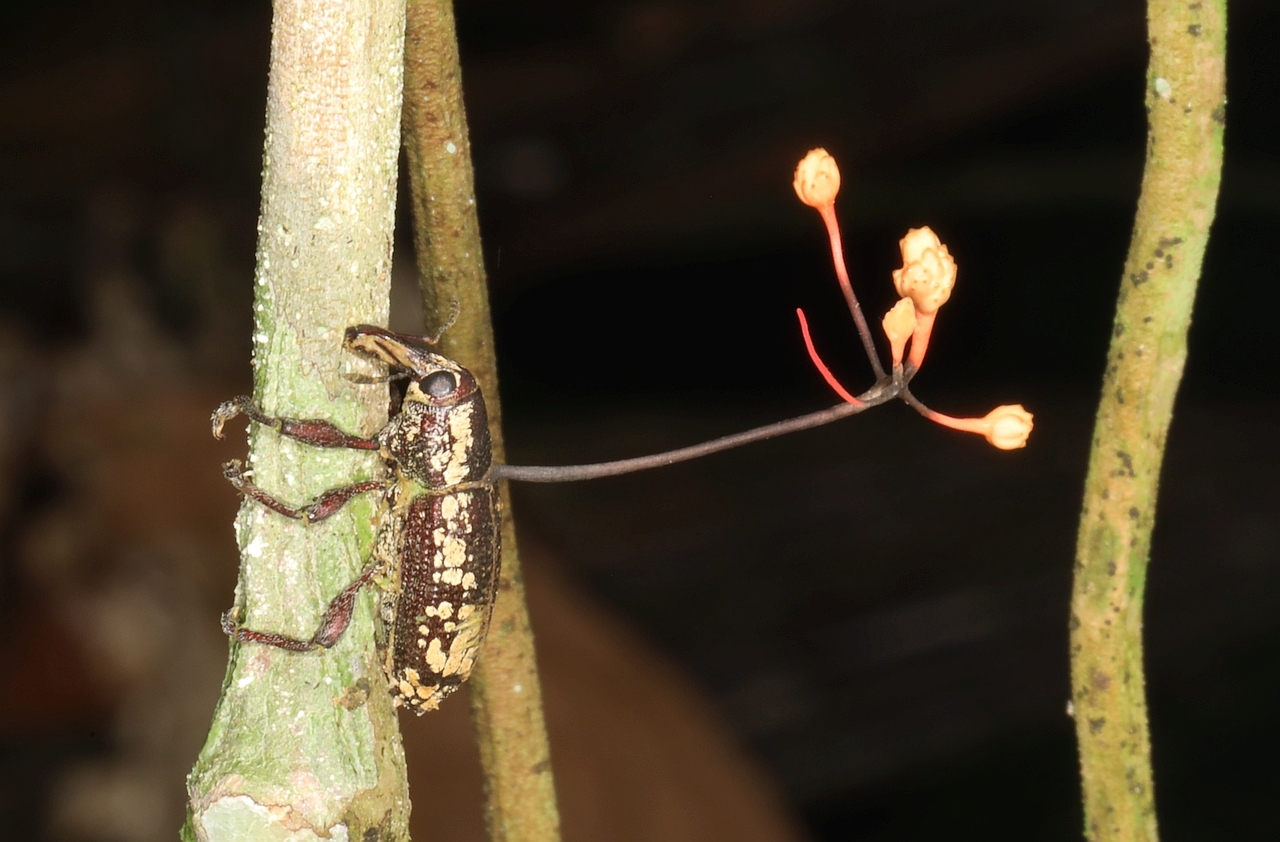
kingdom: Fungi
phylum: Ascomycota
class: Sordariomycetes
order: Hypocreales
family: Ophiocordycipitaceae
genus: Ophiocordyceps
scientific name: Ophiocordyceps curculionum
